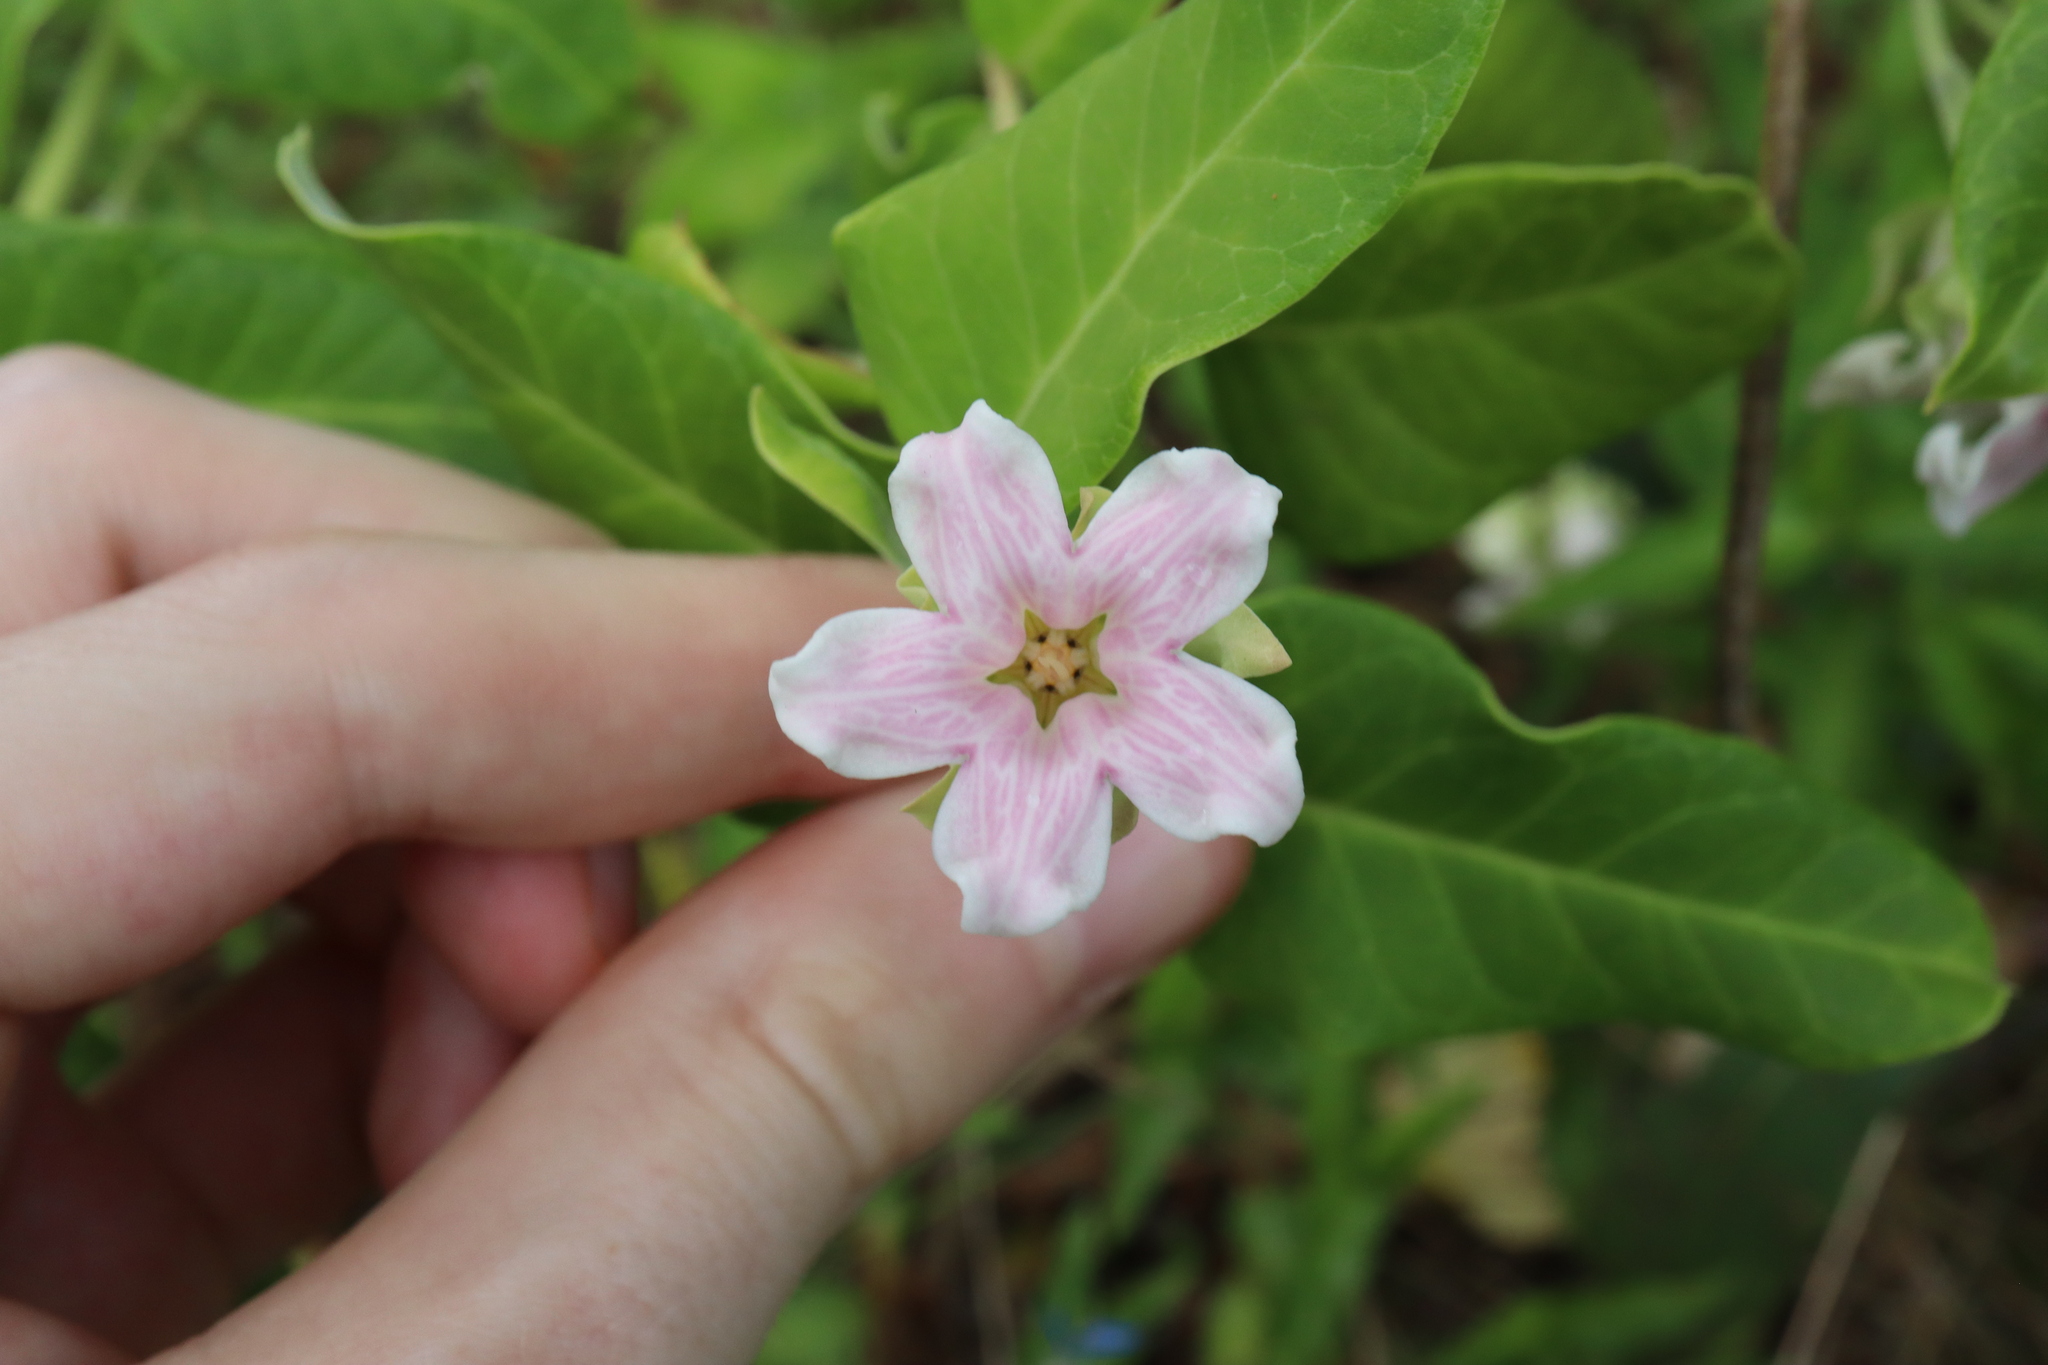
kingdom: Plantae
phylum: Tracheophyta
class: Magnoliopsida
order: Gentianales
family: Apocynaceae
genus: Araujia
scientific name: Araujia sericifera
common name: White bladderflower
